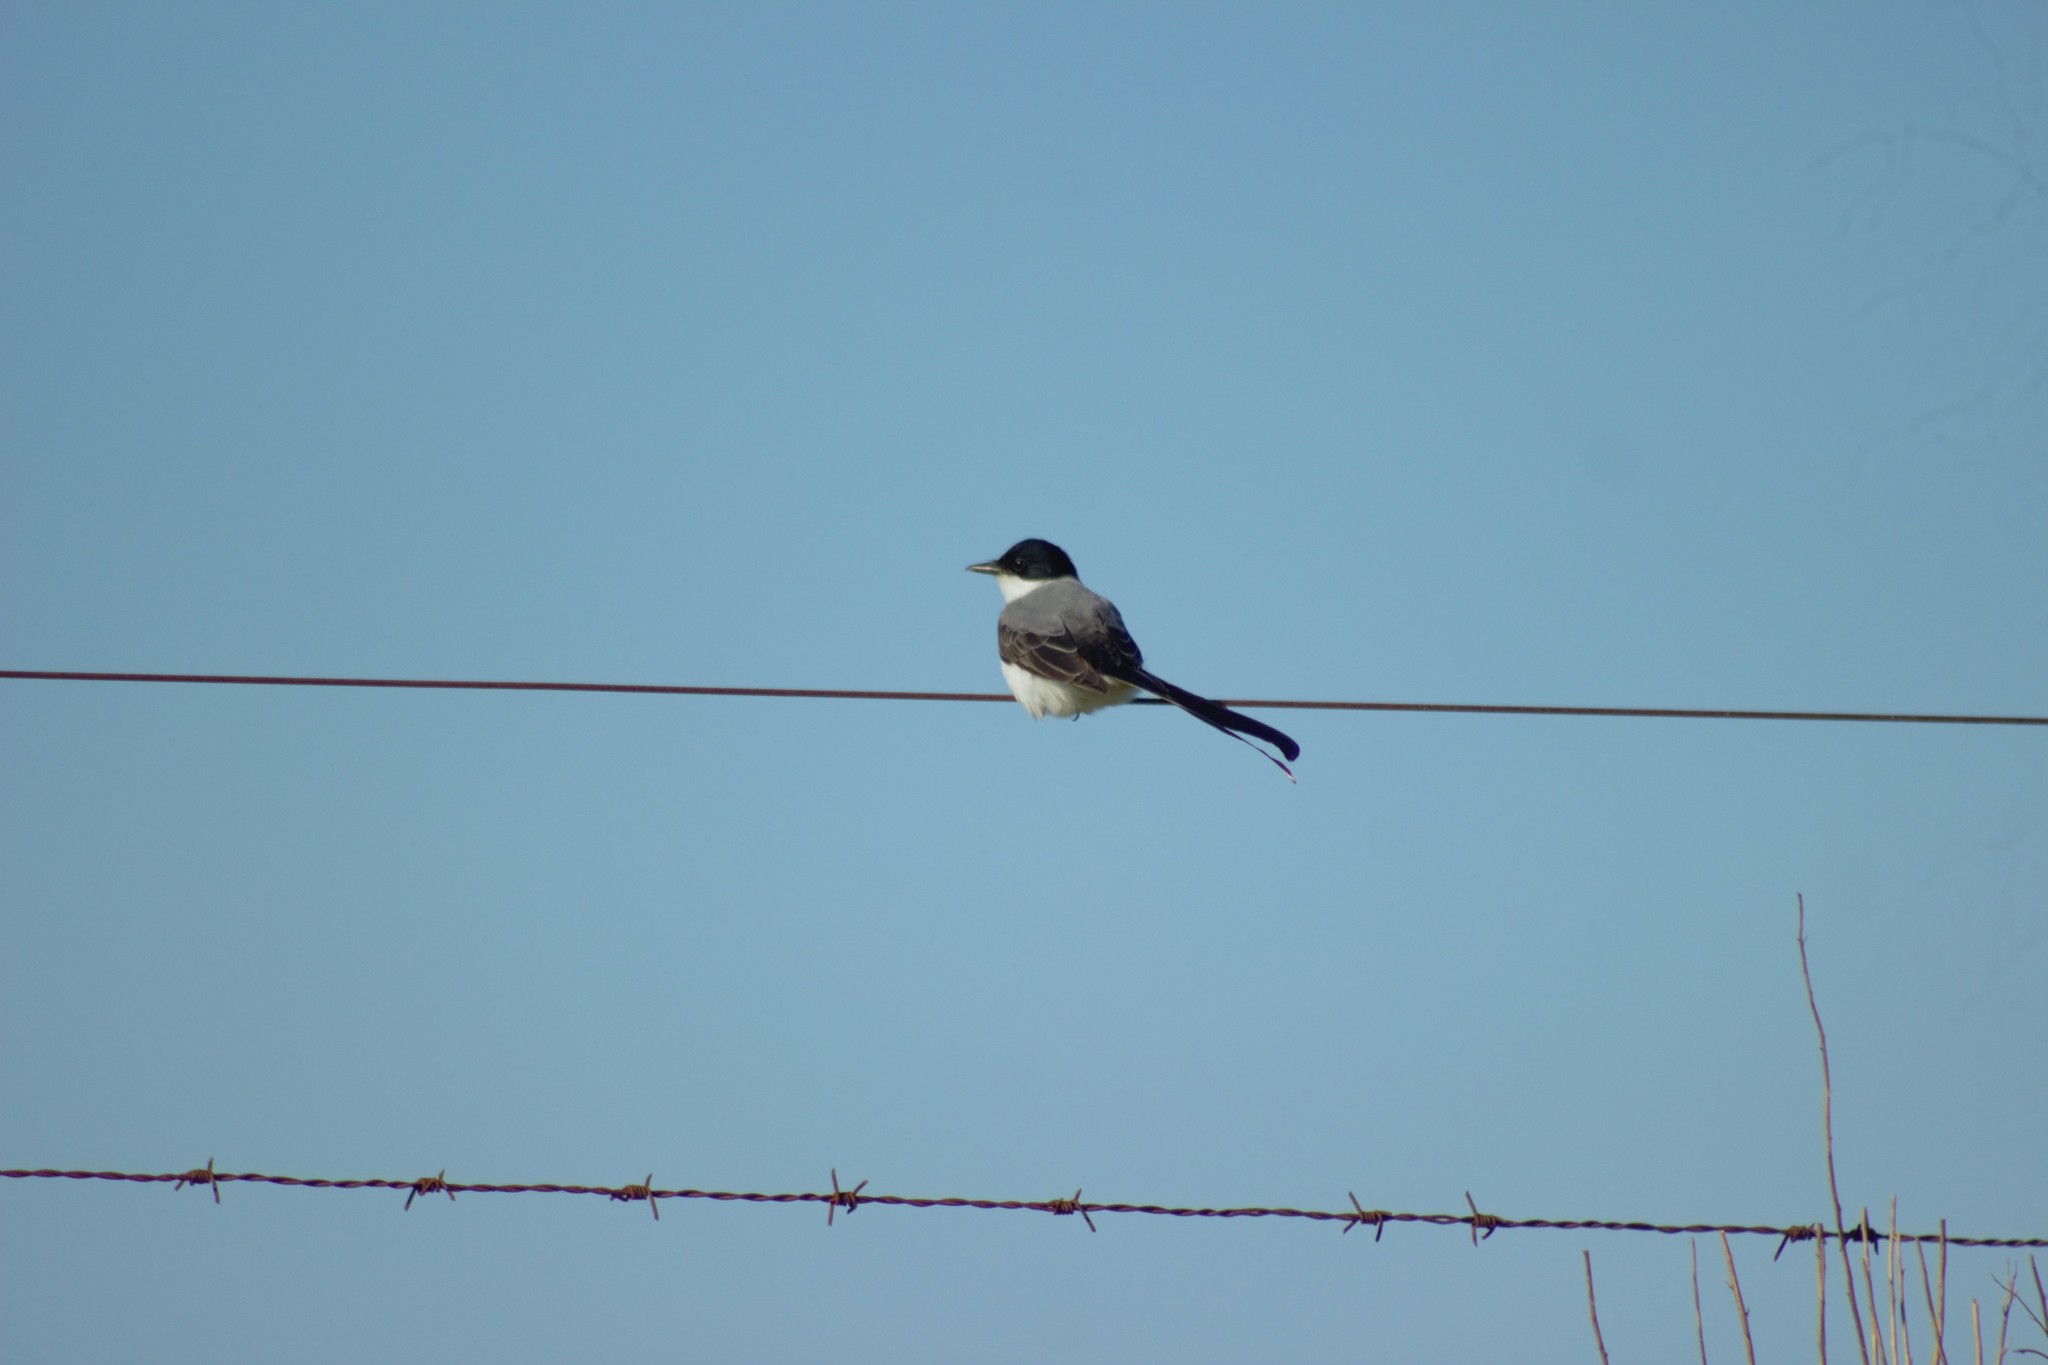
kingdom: Animalia
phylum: Chordata
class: Aves
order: Passeriformes
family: Tyrannidae
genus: Tyrannus
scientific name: Tyrannus savana
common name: Fork-tailed flycatcher
